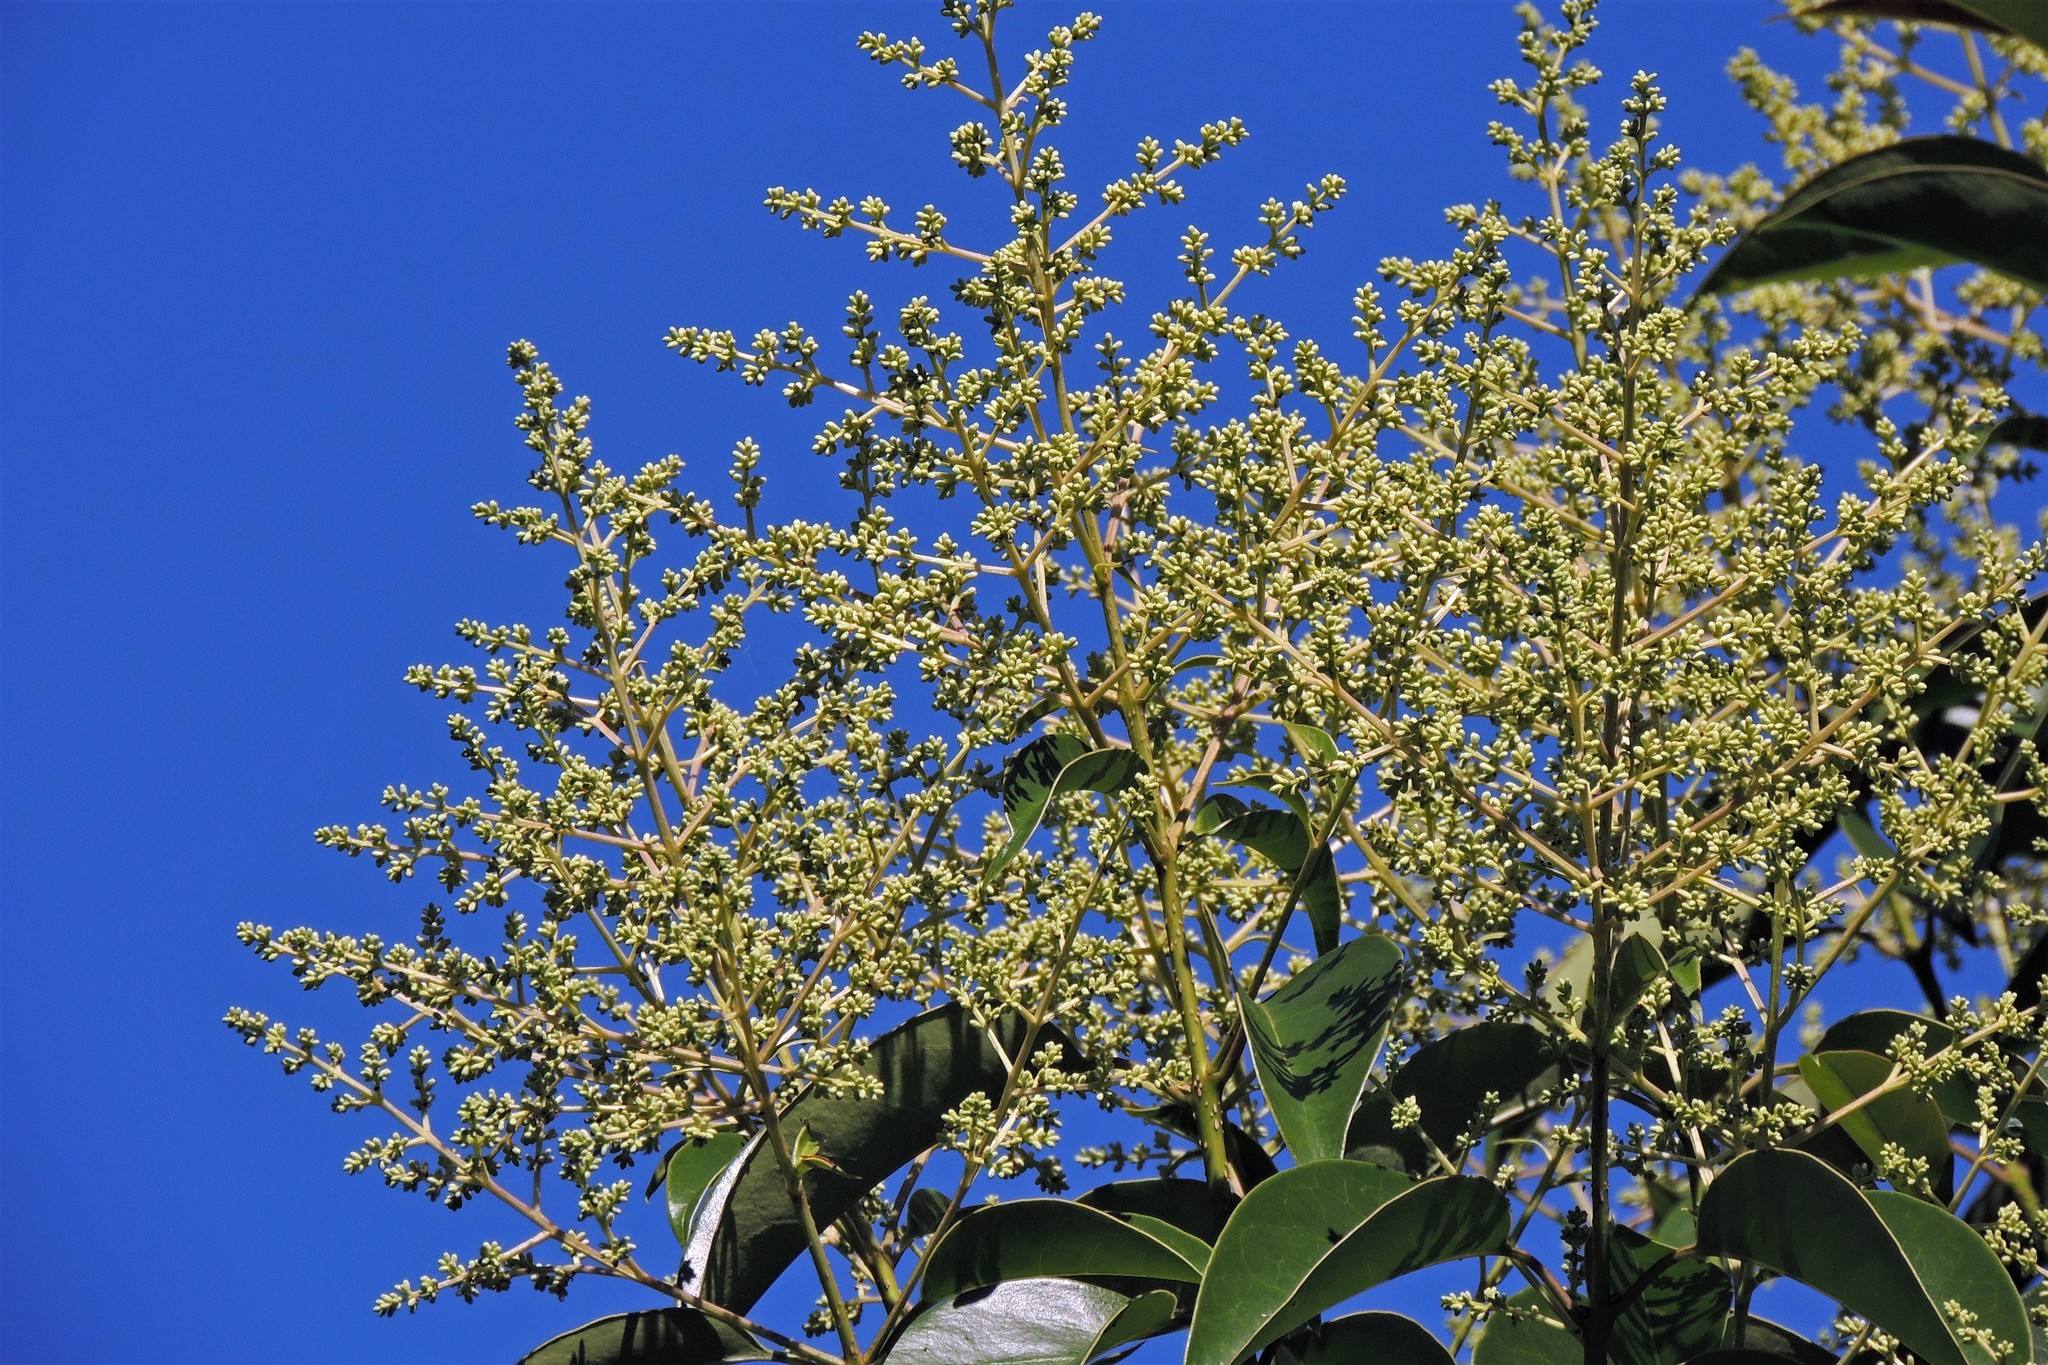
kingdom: Plantae
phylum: Tracheophyta
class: Magnoliopsida
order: Lamiales
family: Oleaceae
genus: Ligustrum
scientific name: Ligustrum lucidum
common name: Glossy privet
